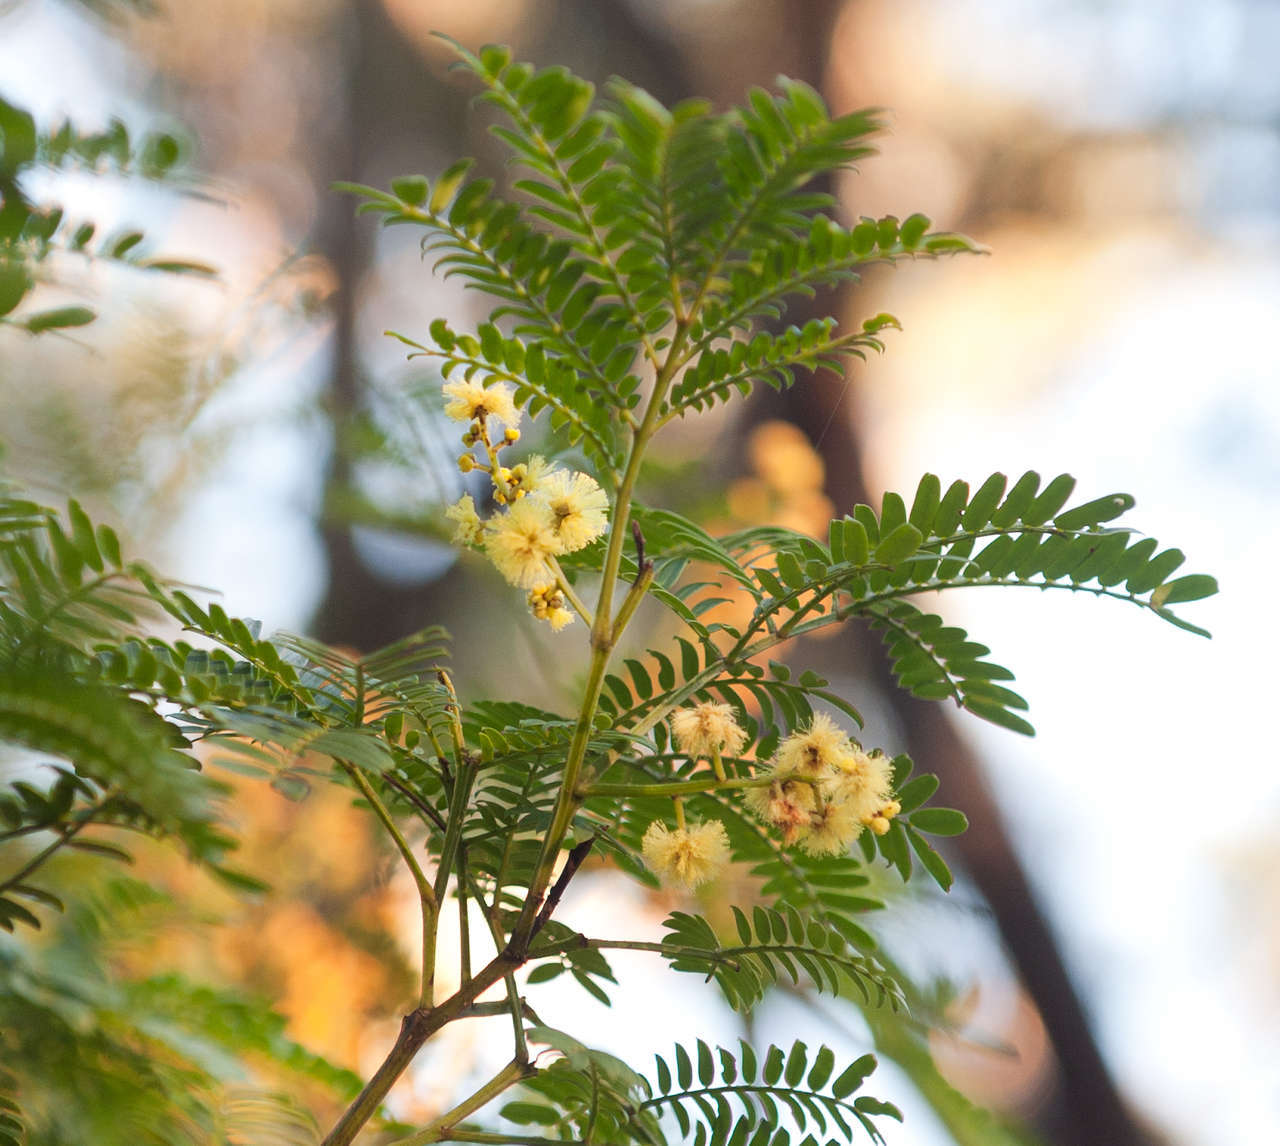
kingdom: Plantae
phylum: Tracheophyta
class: Magnoliopsida
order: Fabales
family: Fabaceae
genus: Acacia
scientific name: Acacia terminalis
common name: Cedar wattle
